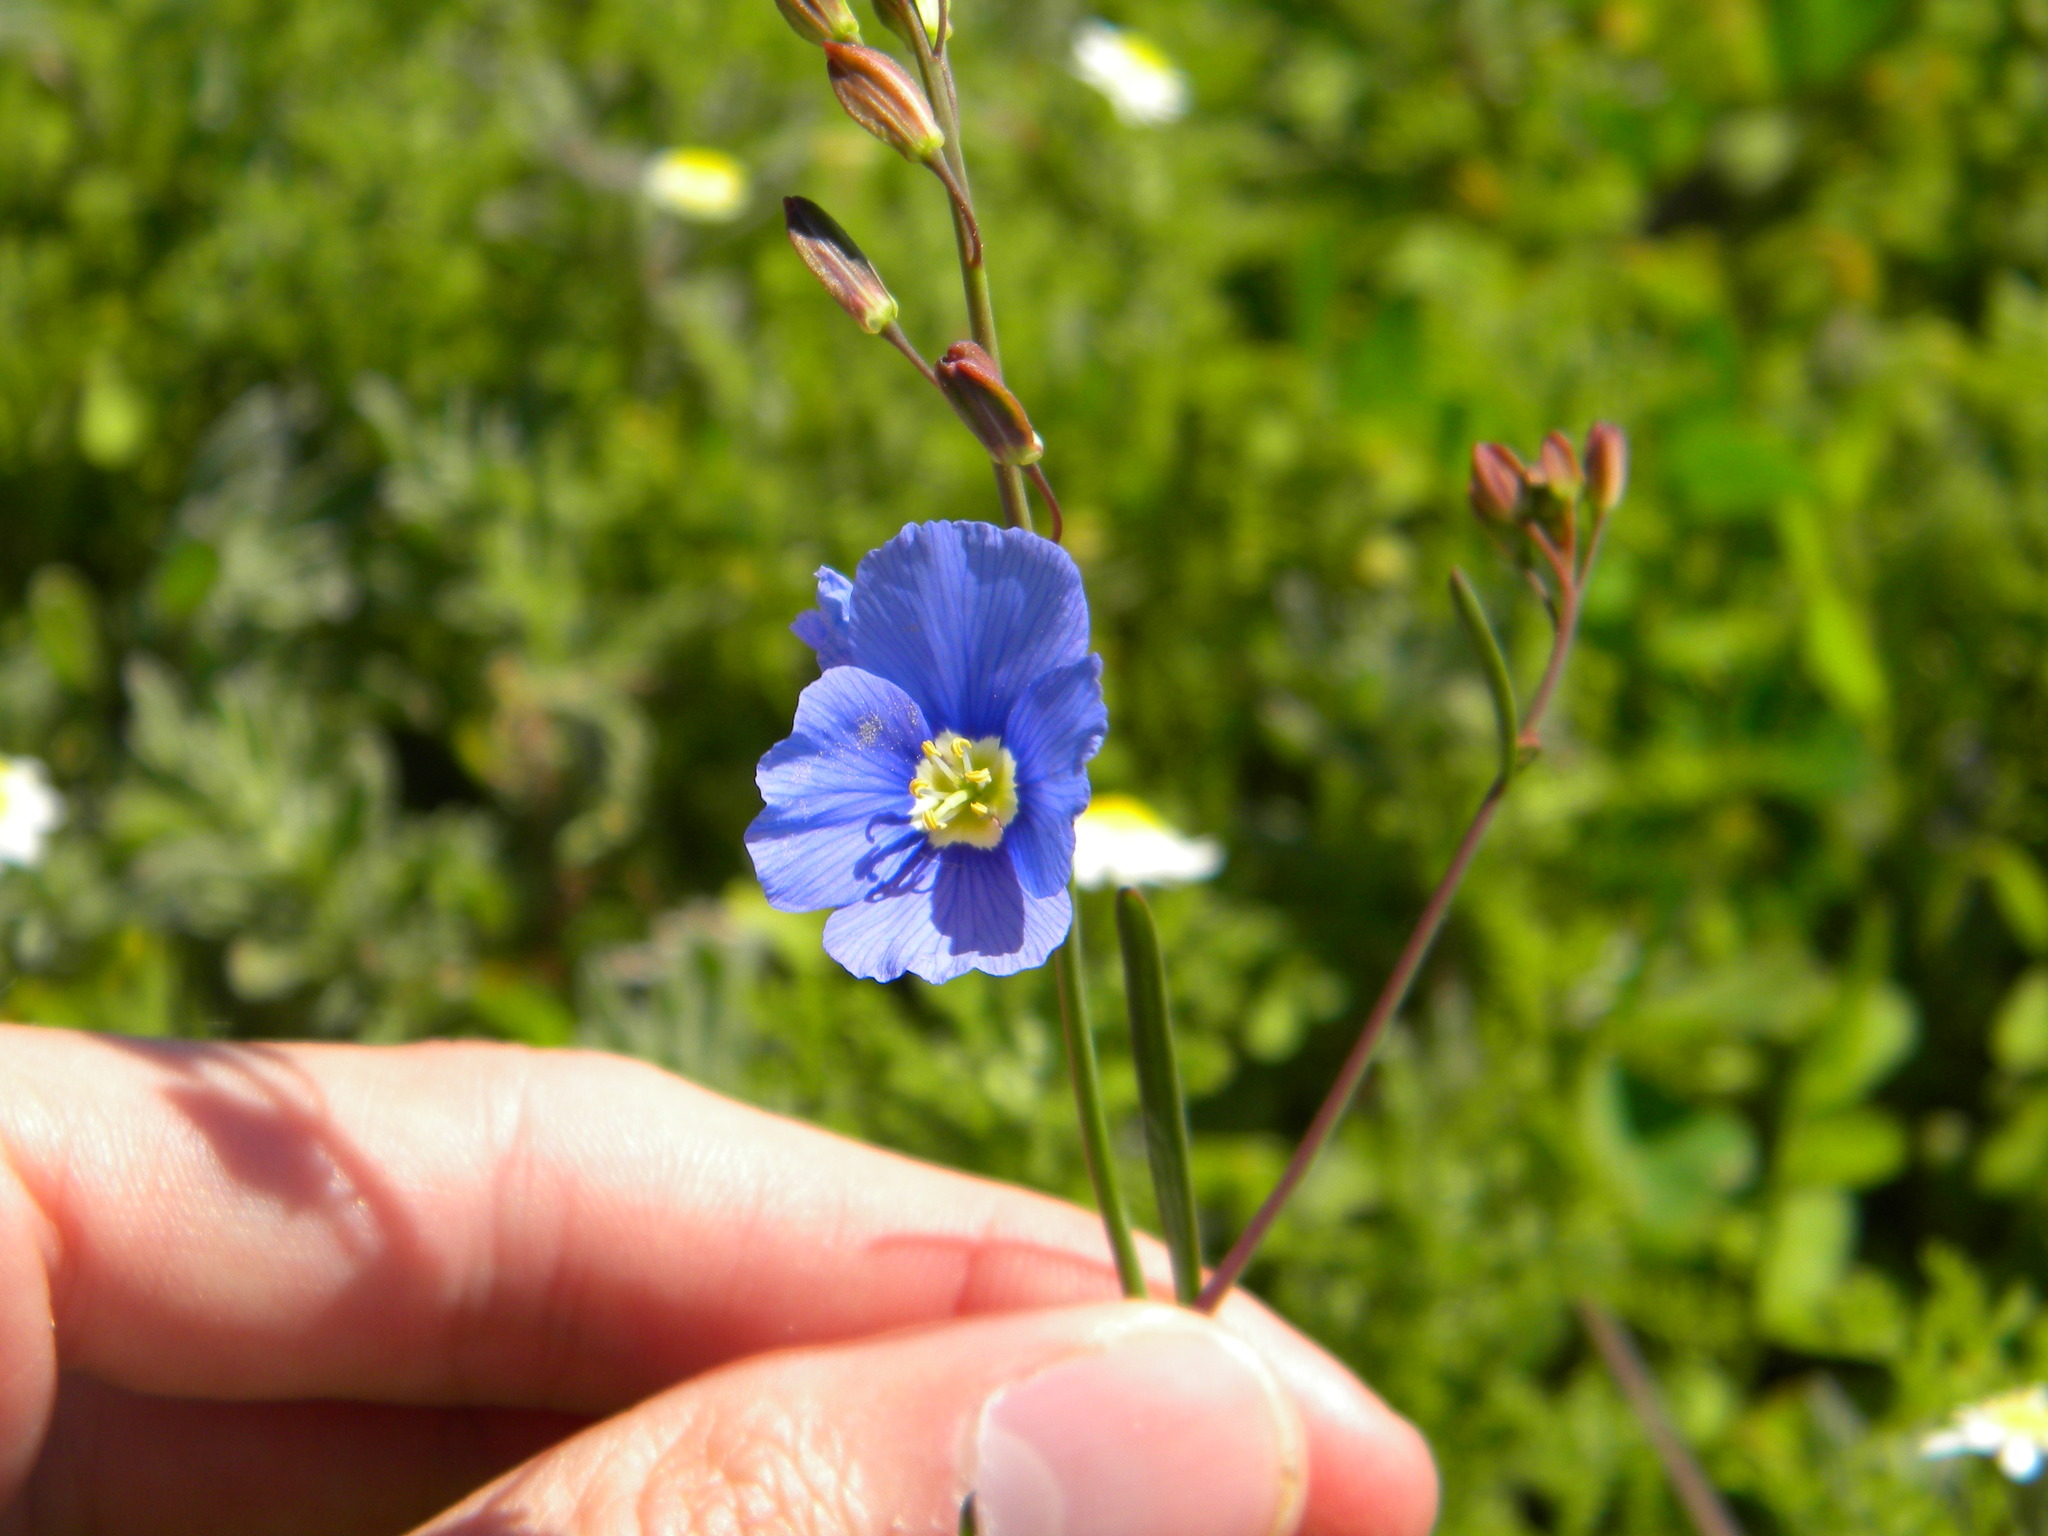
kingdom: Plantae
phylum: Tracheophyta
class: Magnoliopsida
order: Brassicales
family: Brassicaceae
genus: Heliophila
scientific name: Heliophila coronopifolia
